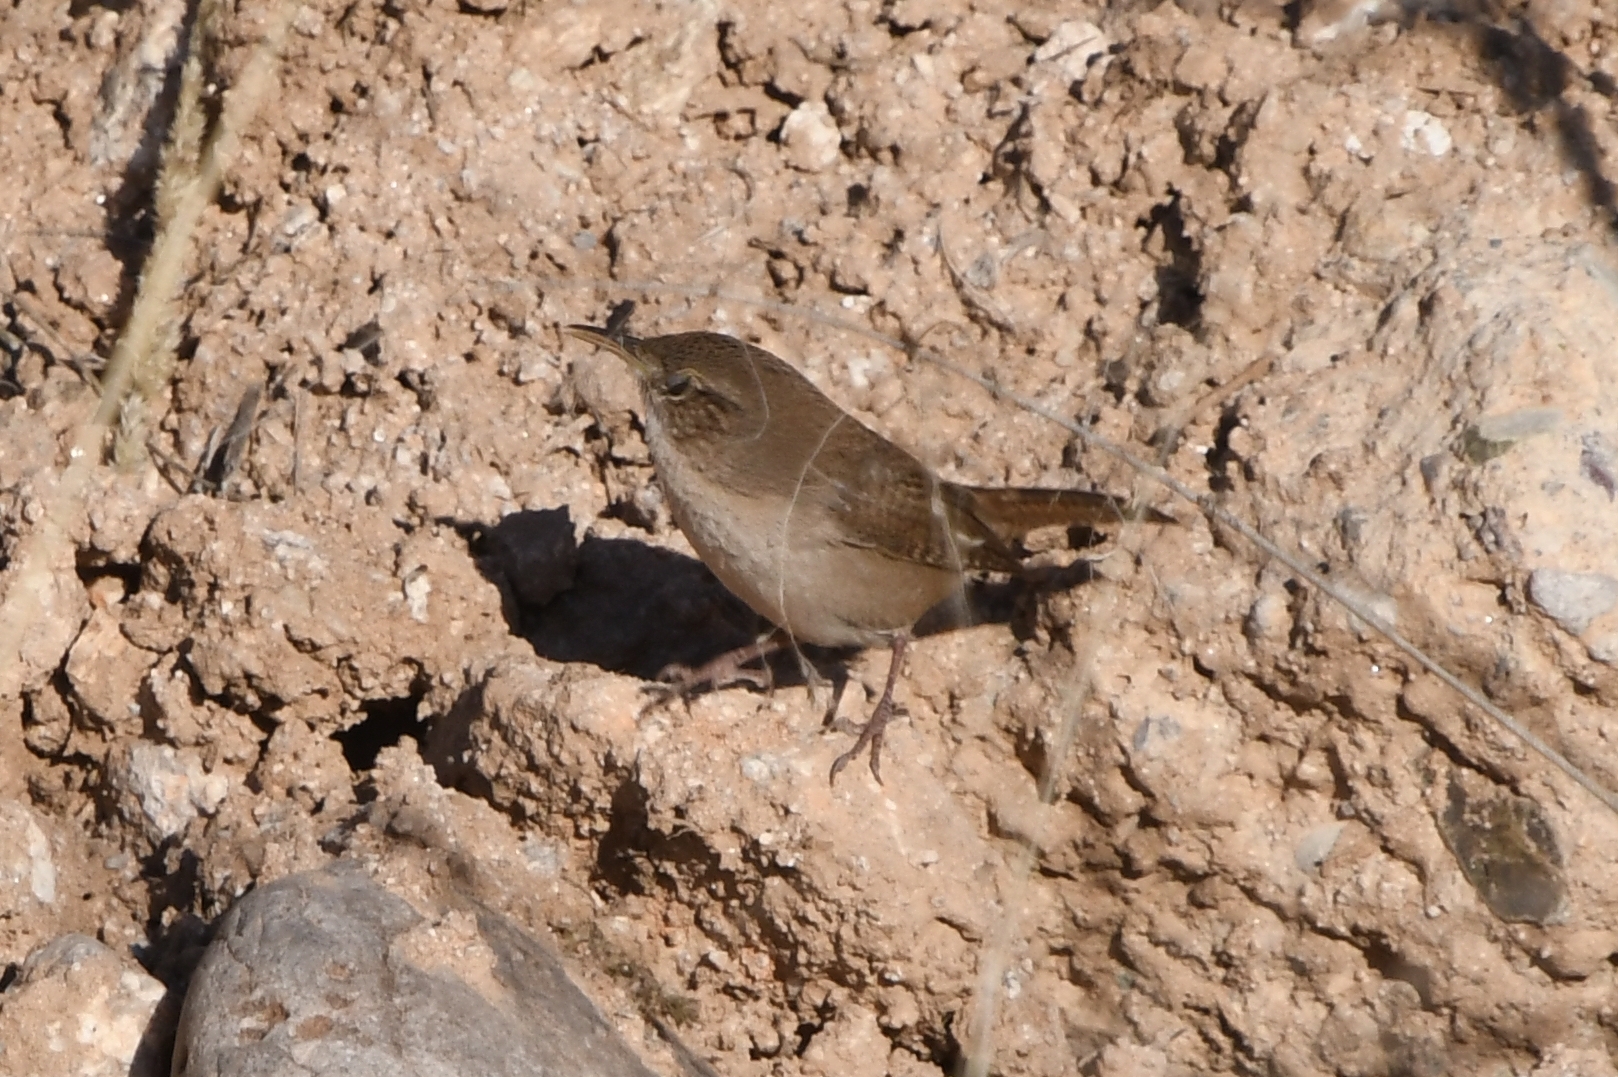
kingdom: Animalia
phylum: Chordata
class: Aves
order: Passeriformes
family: Troglodytidae
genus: Troglodytes
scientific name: Troglodytes aedon
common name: House wren
